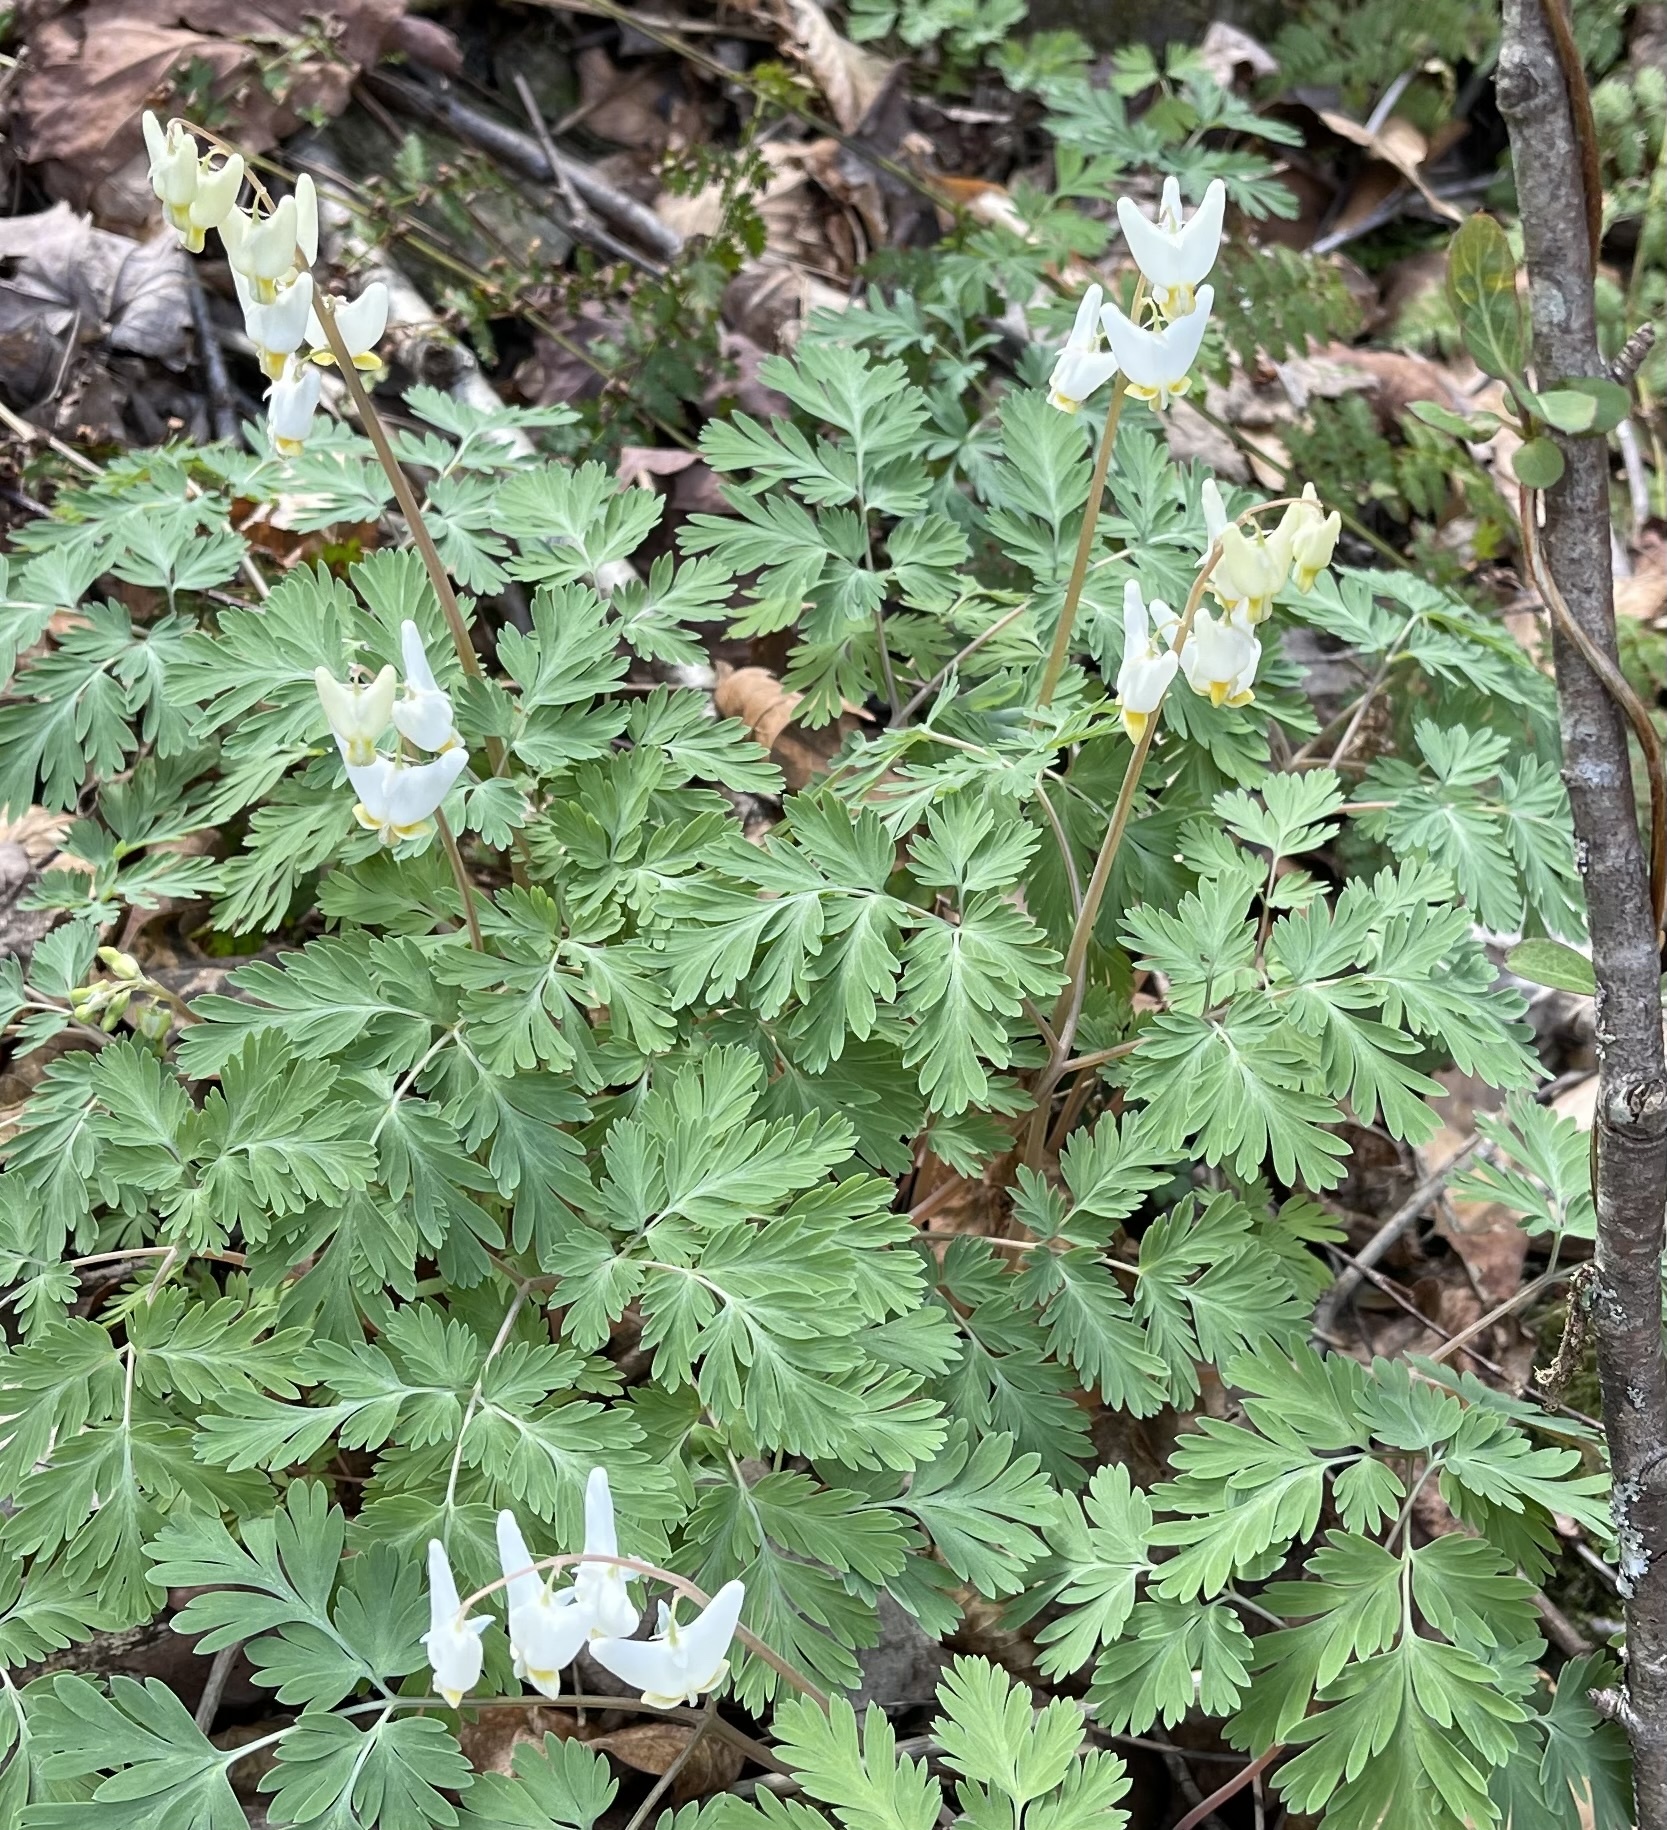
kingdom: Plantae
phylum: Tracheophyta
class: Magnoliopsida
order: Ranunculales
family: Papaveraceae
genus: Dicentra
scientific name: Dicentra cucullaria
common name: Dutchman's breeches
